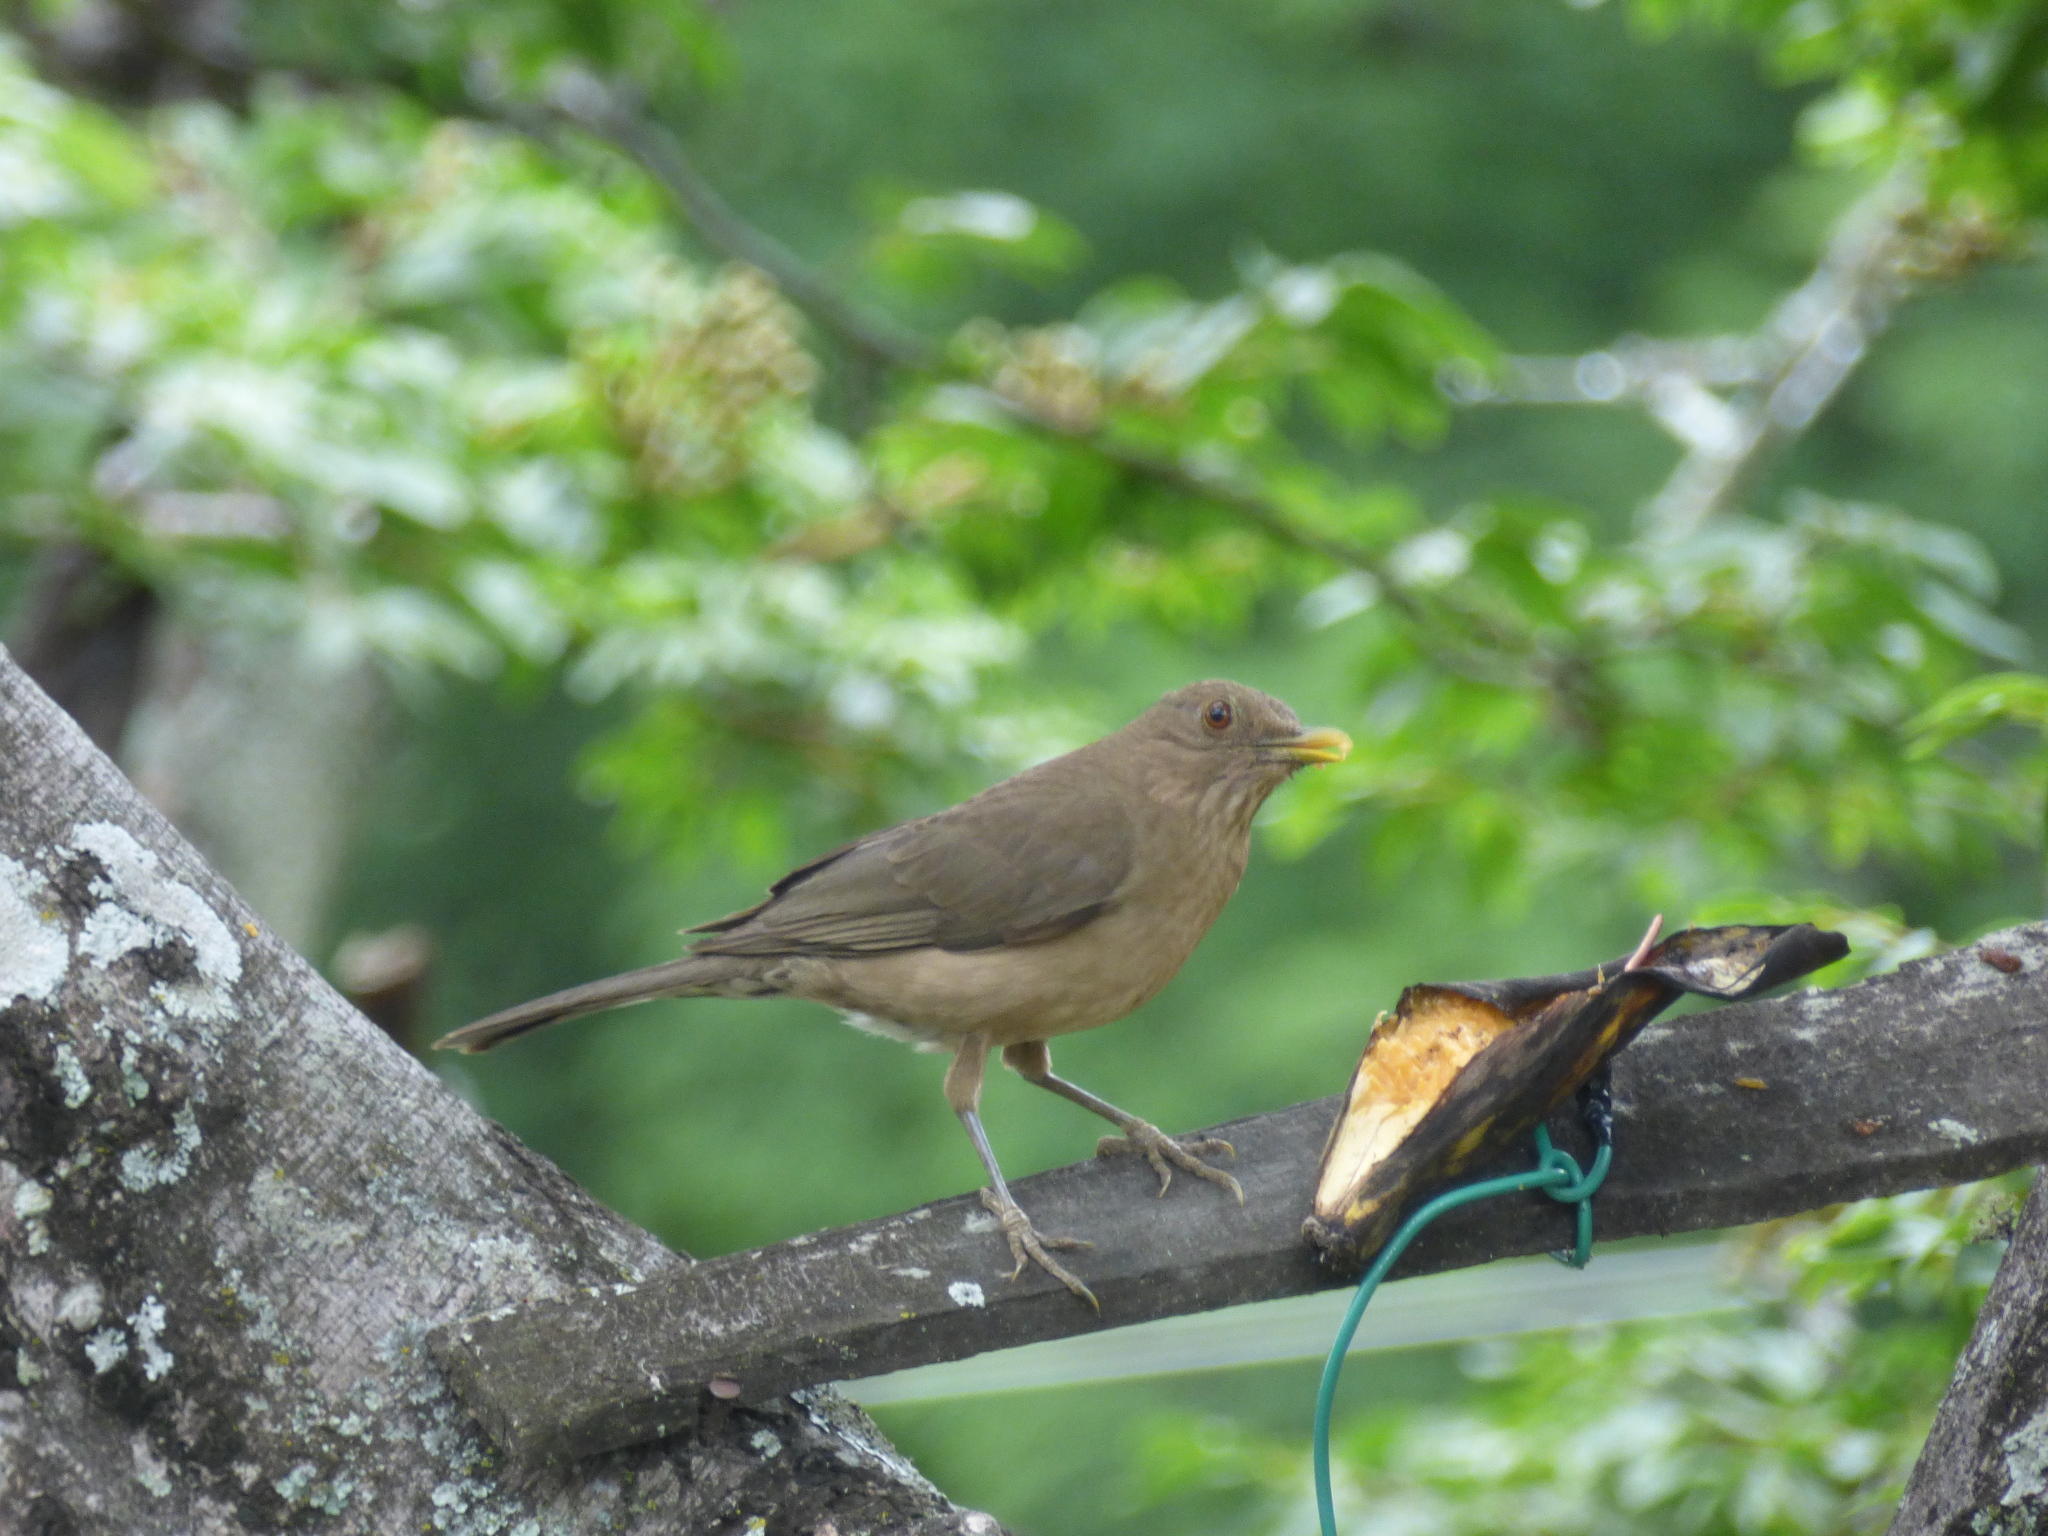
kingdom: Animalia
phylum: Chordata
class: Aves
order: Passeriformes
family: Turdidae
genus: Turdus
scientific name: Turdus grayi
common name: Clay-colored thrush
